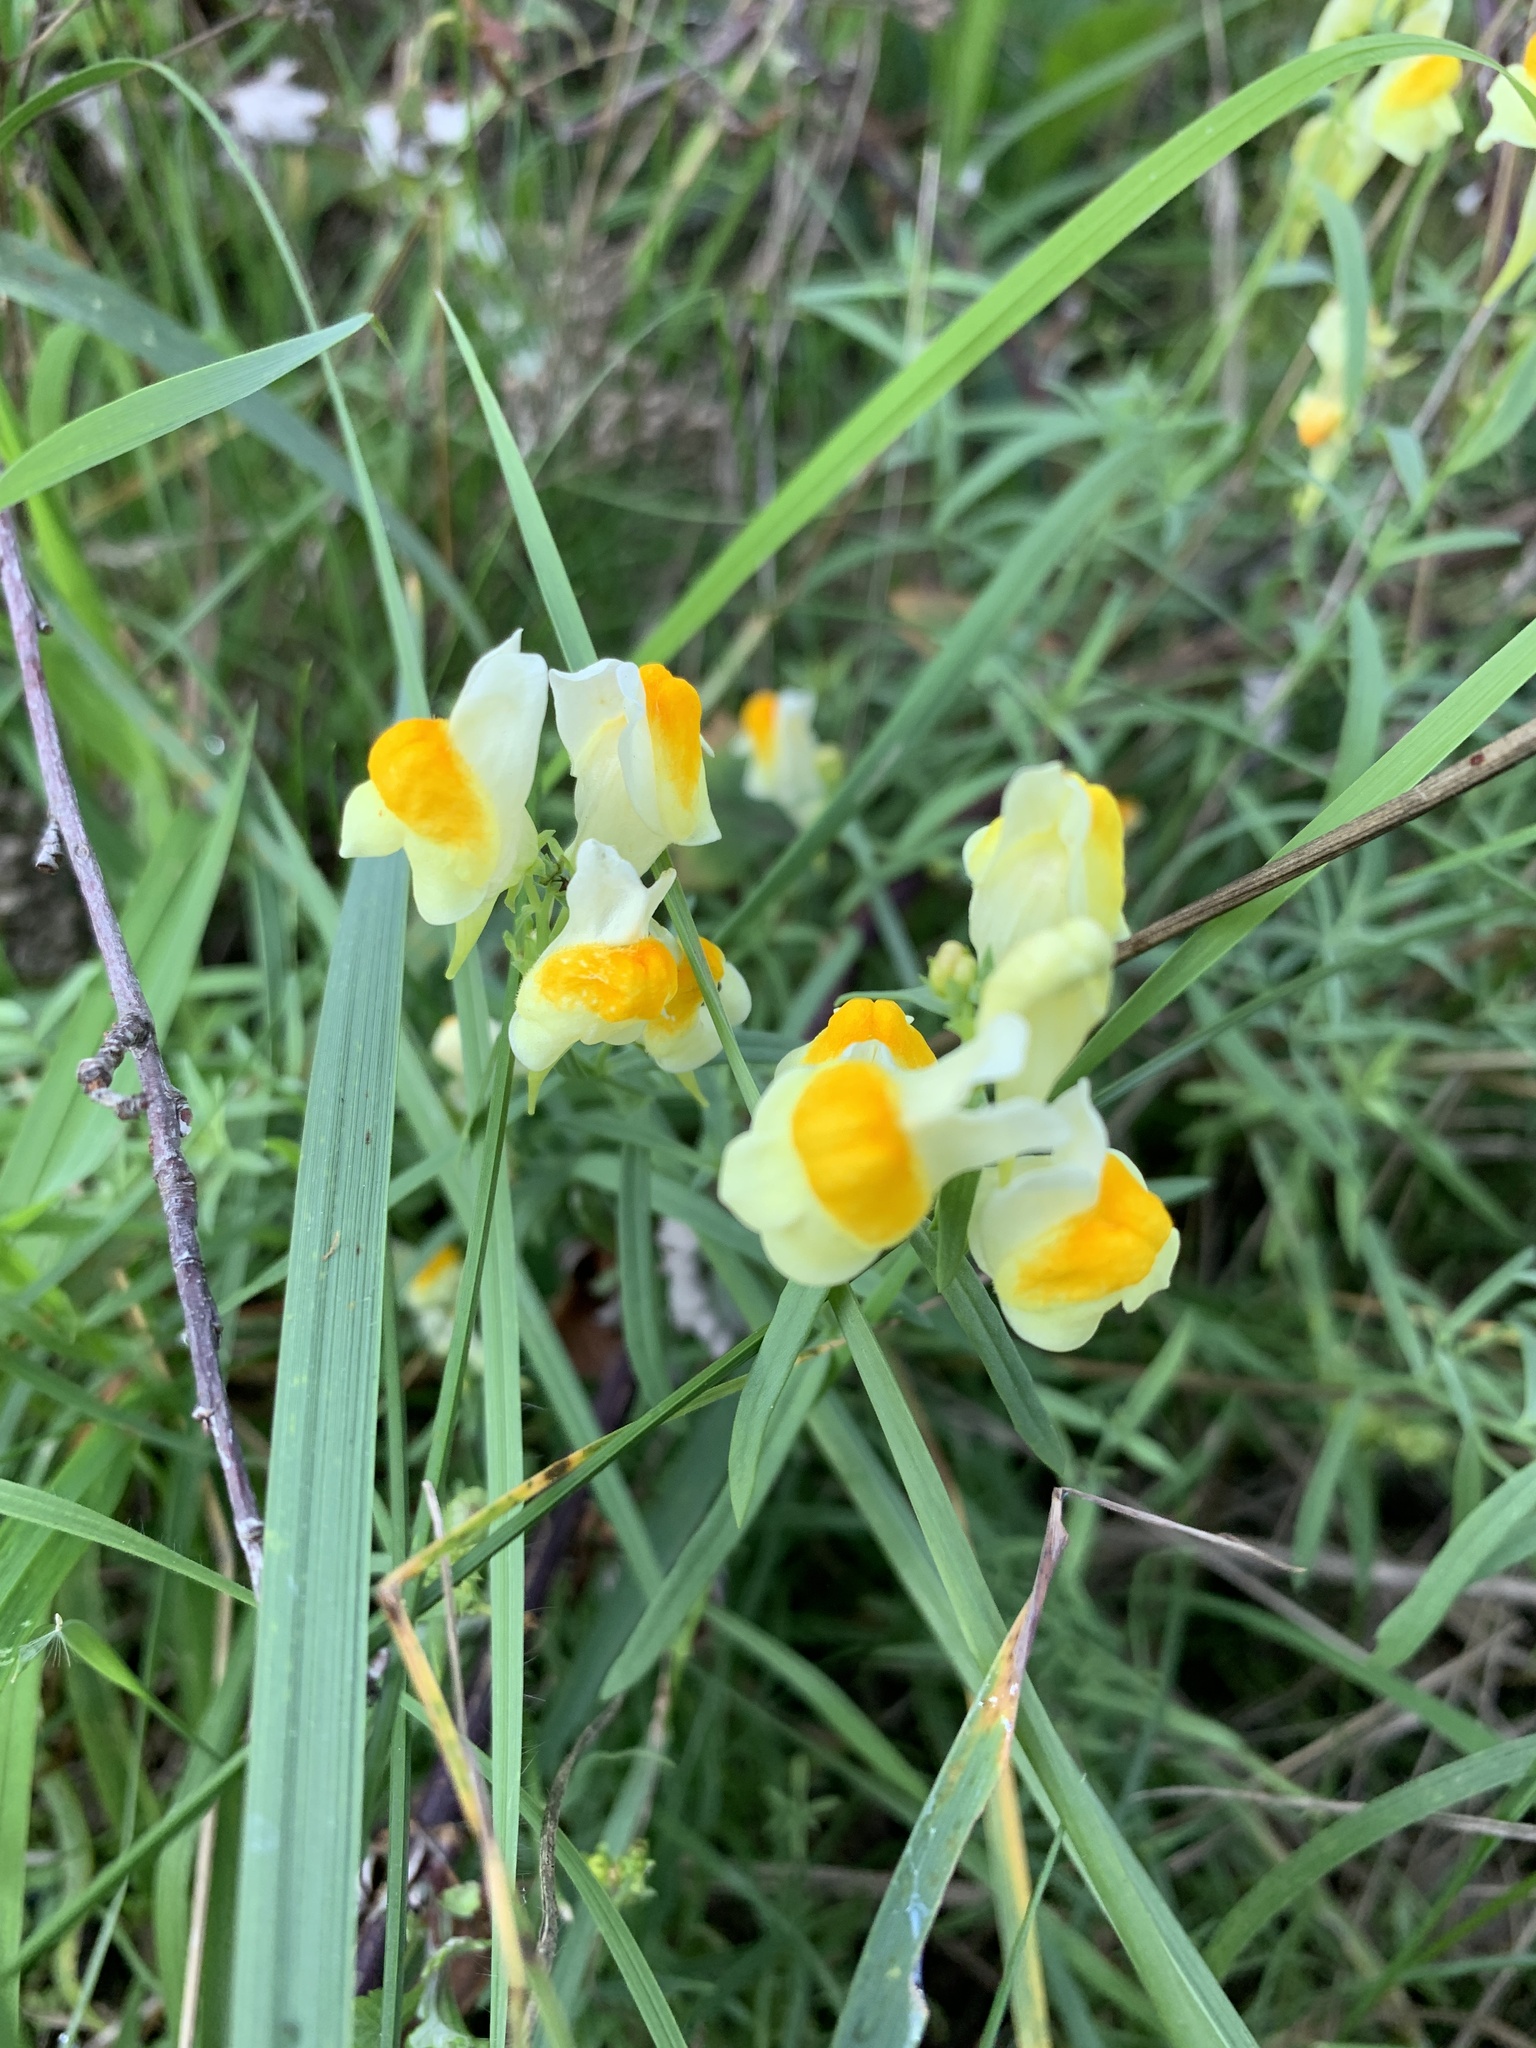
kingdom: Plantae
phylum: Tracheophyta
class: Magnoliopsida
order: Lamiales
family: Plantaginaceae
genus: Linaria
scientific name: Linaria vulgaris
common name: Butter and eggs
